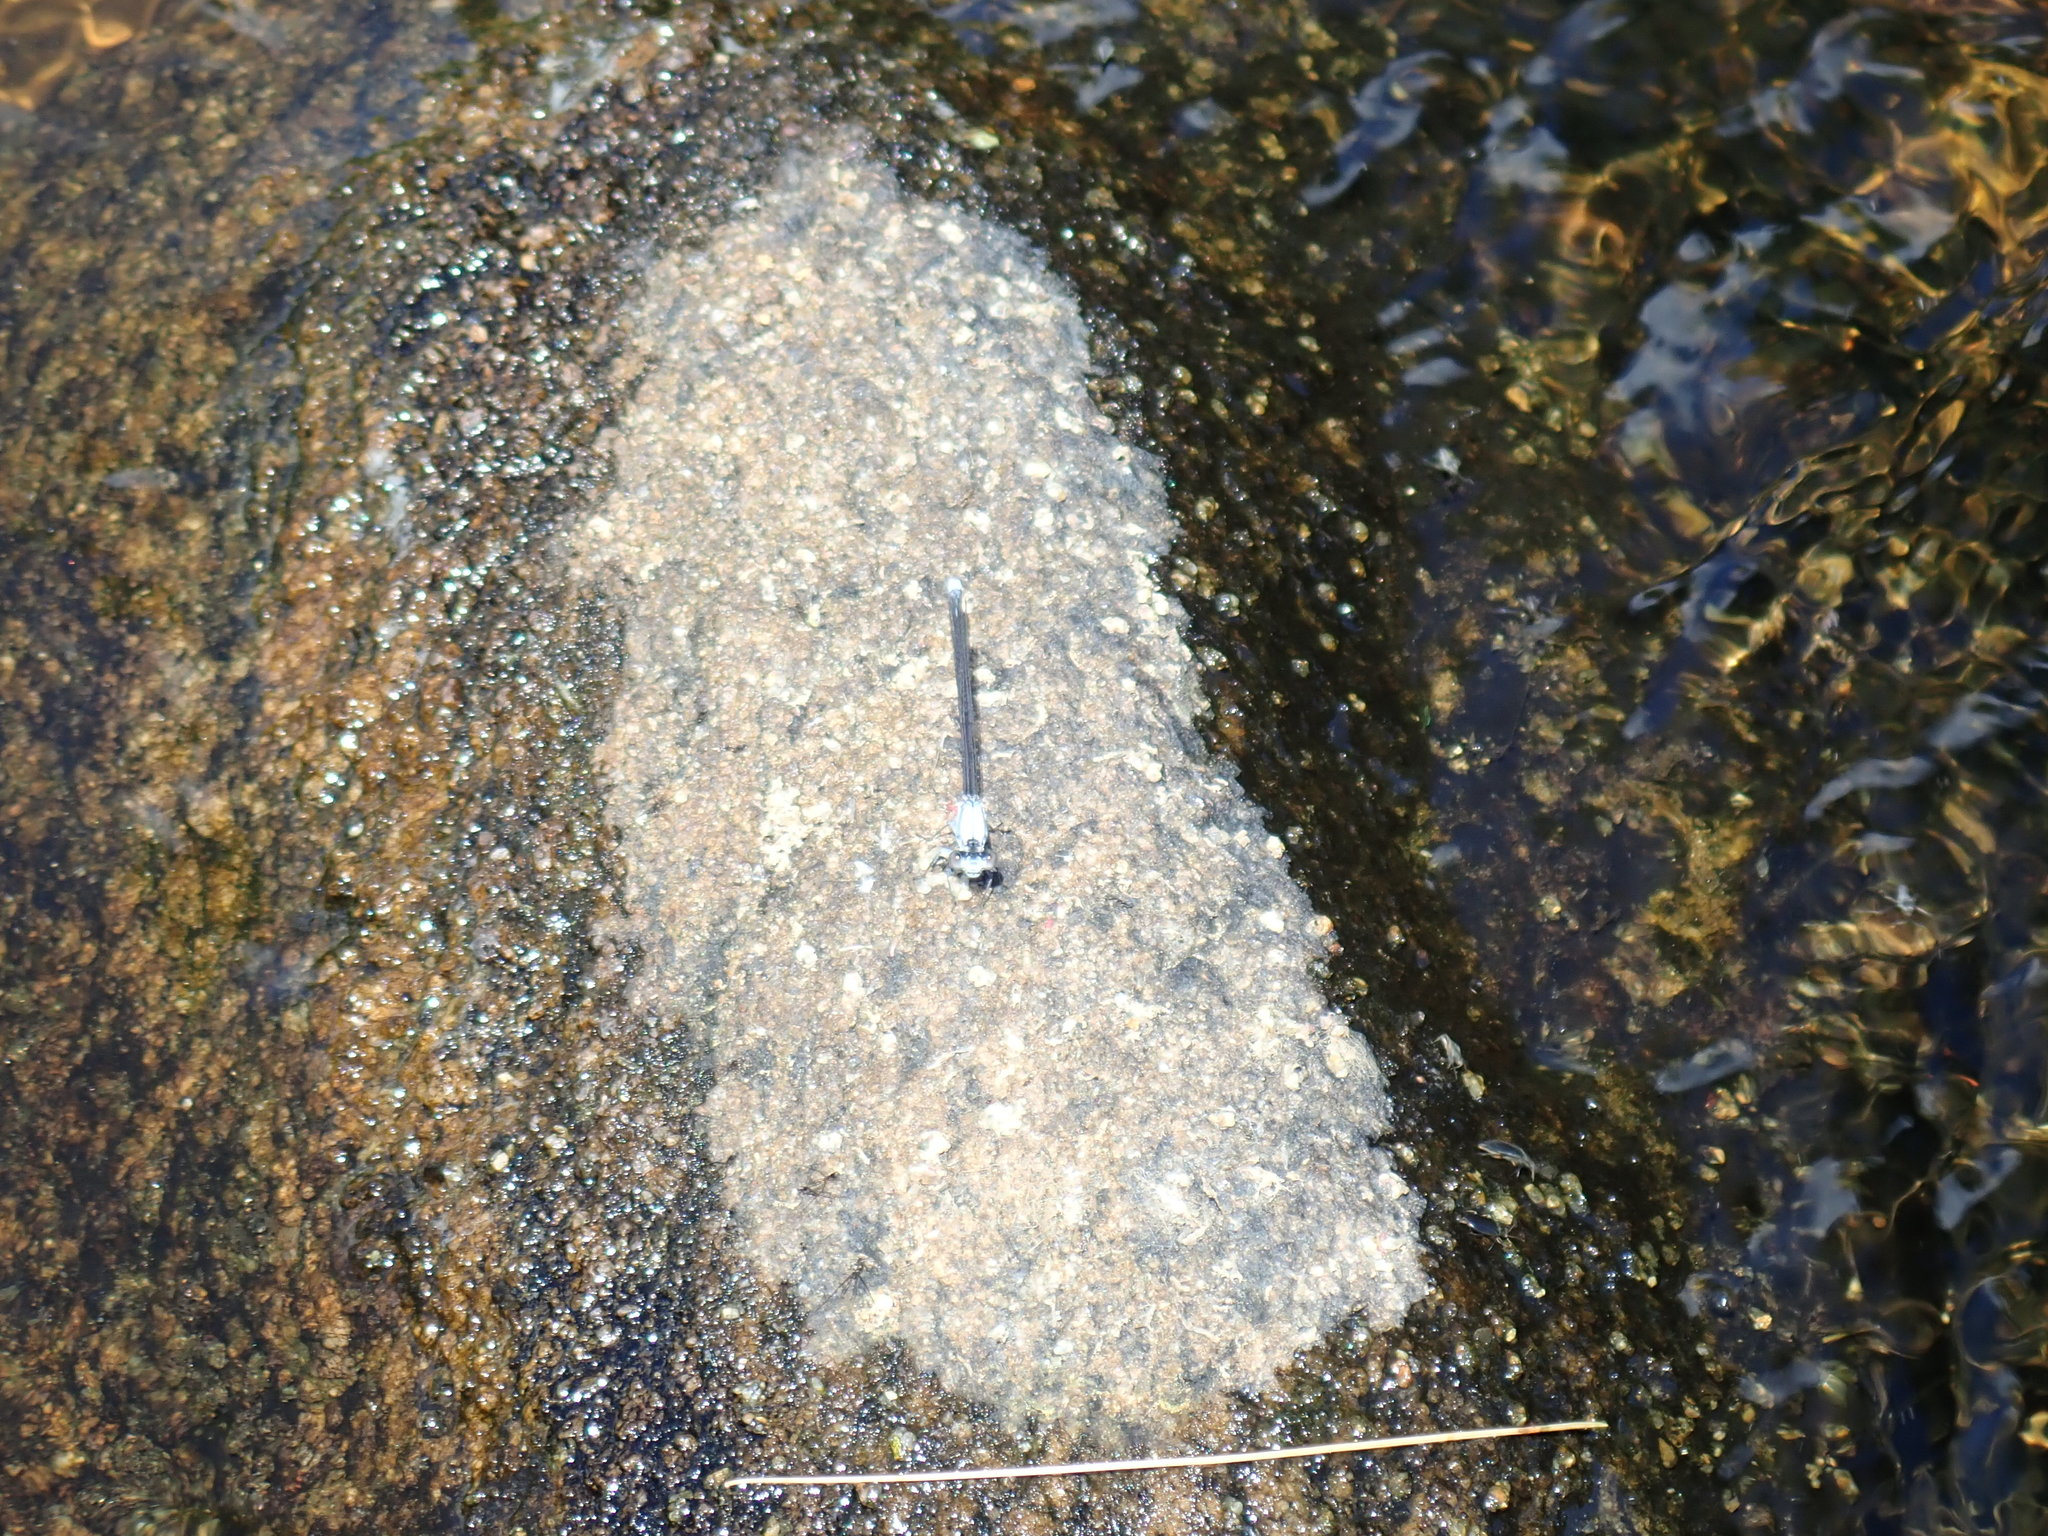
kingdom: Animalia
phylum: Arthropoda
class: Insecta
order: Odonata
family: Coenagrionidae
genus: Argia
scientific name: Argia moesta
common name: Powdered dancer
